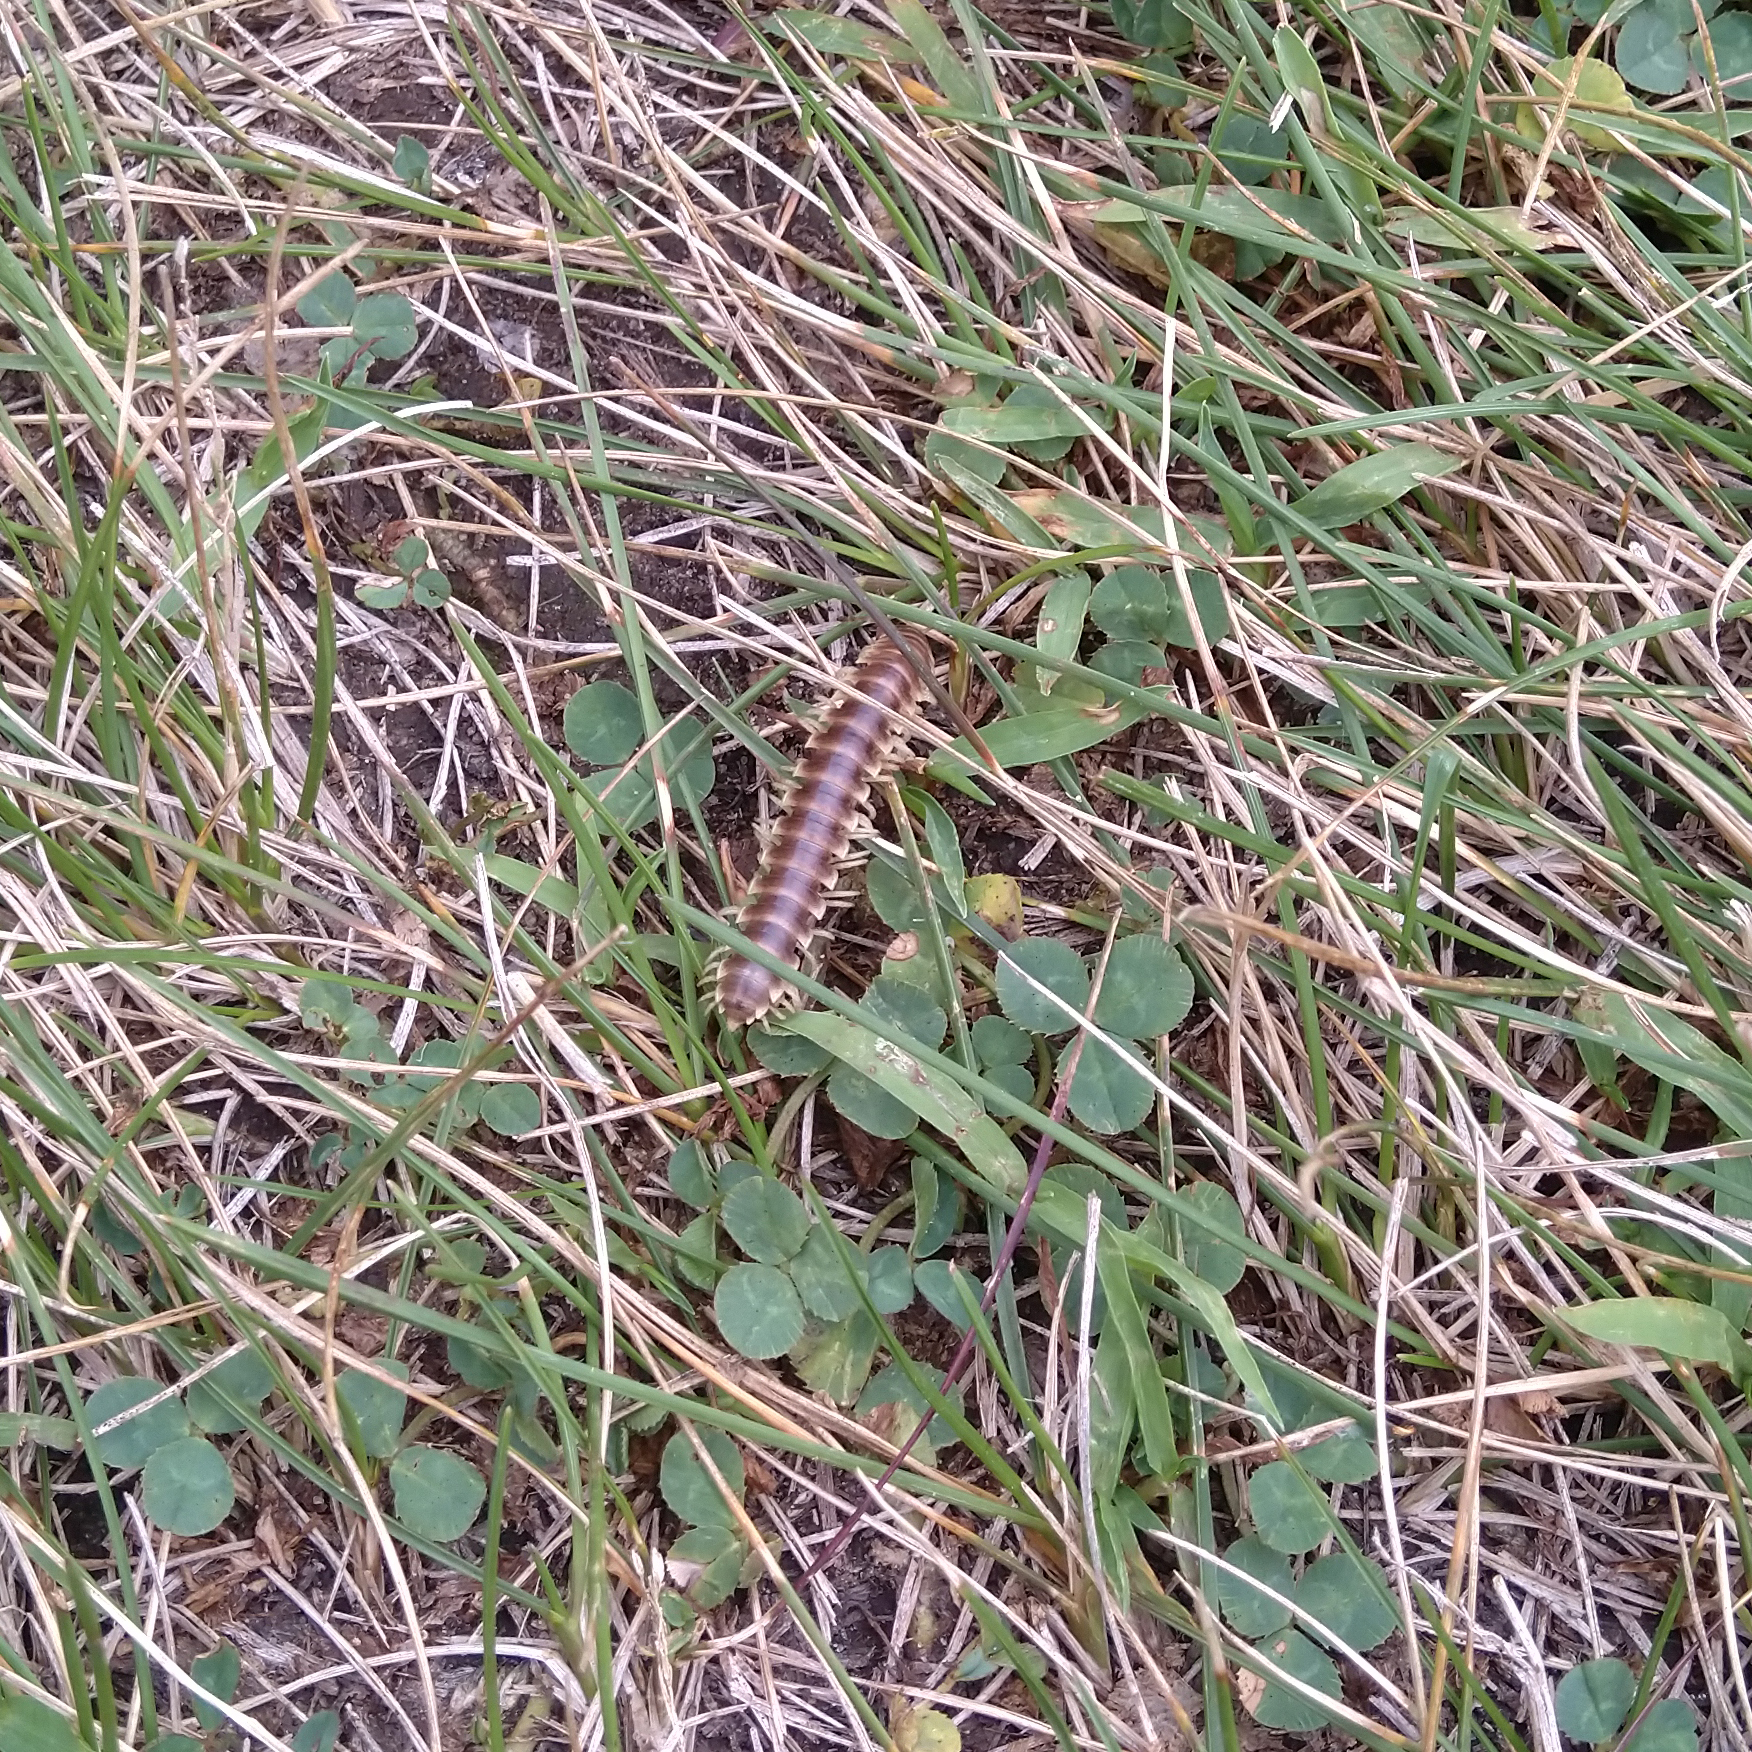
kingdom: Animalia
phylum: Arthropoda
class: Diplopoda
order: Polydesmida
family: Xystodesmidae
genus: Pleuroloma
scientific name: Pleuroloma flavipes
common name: Yellow-legged pleuroloma
